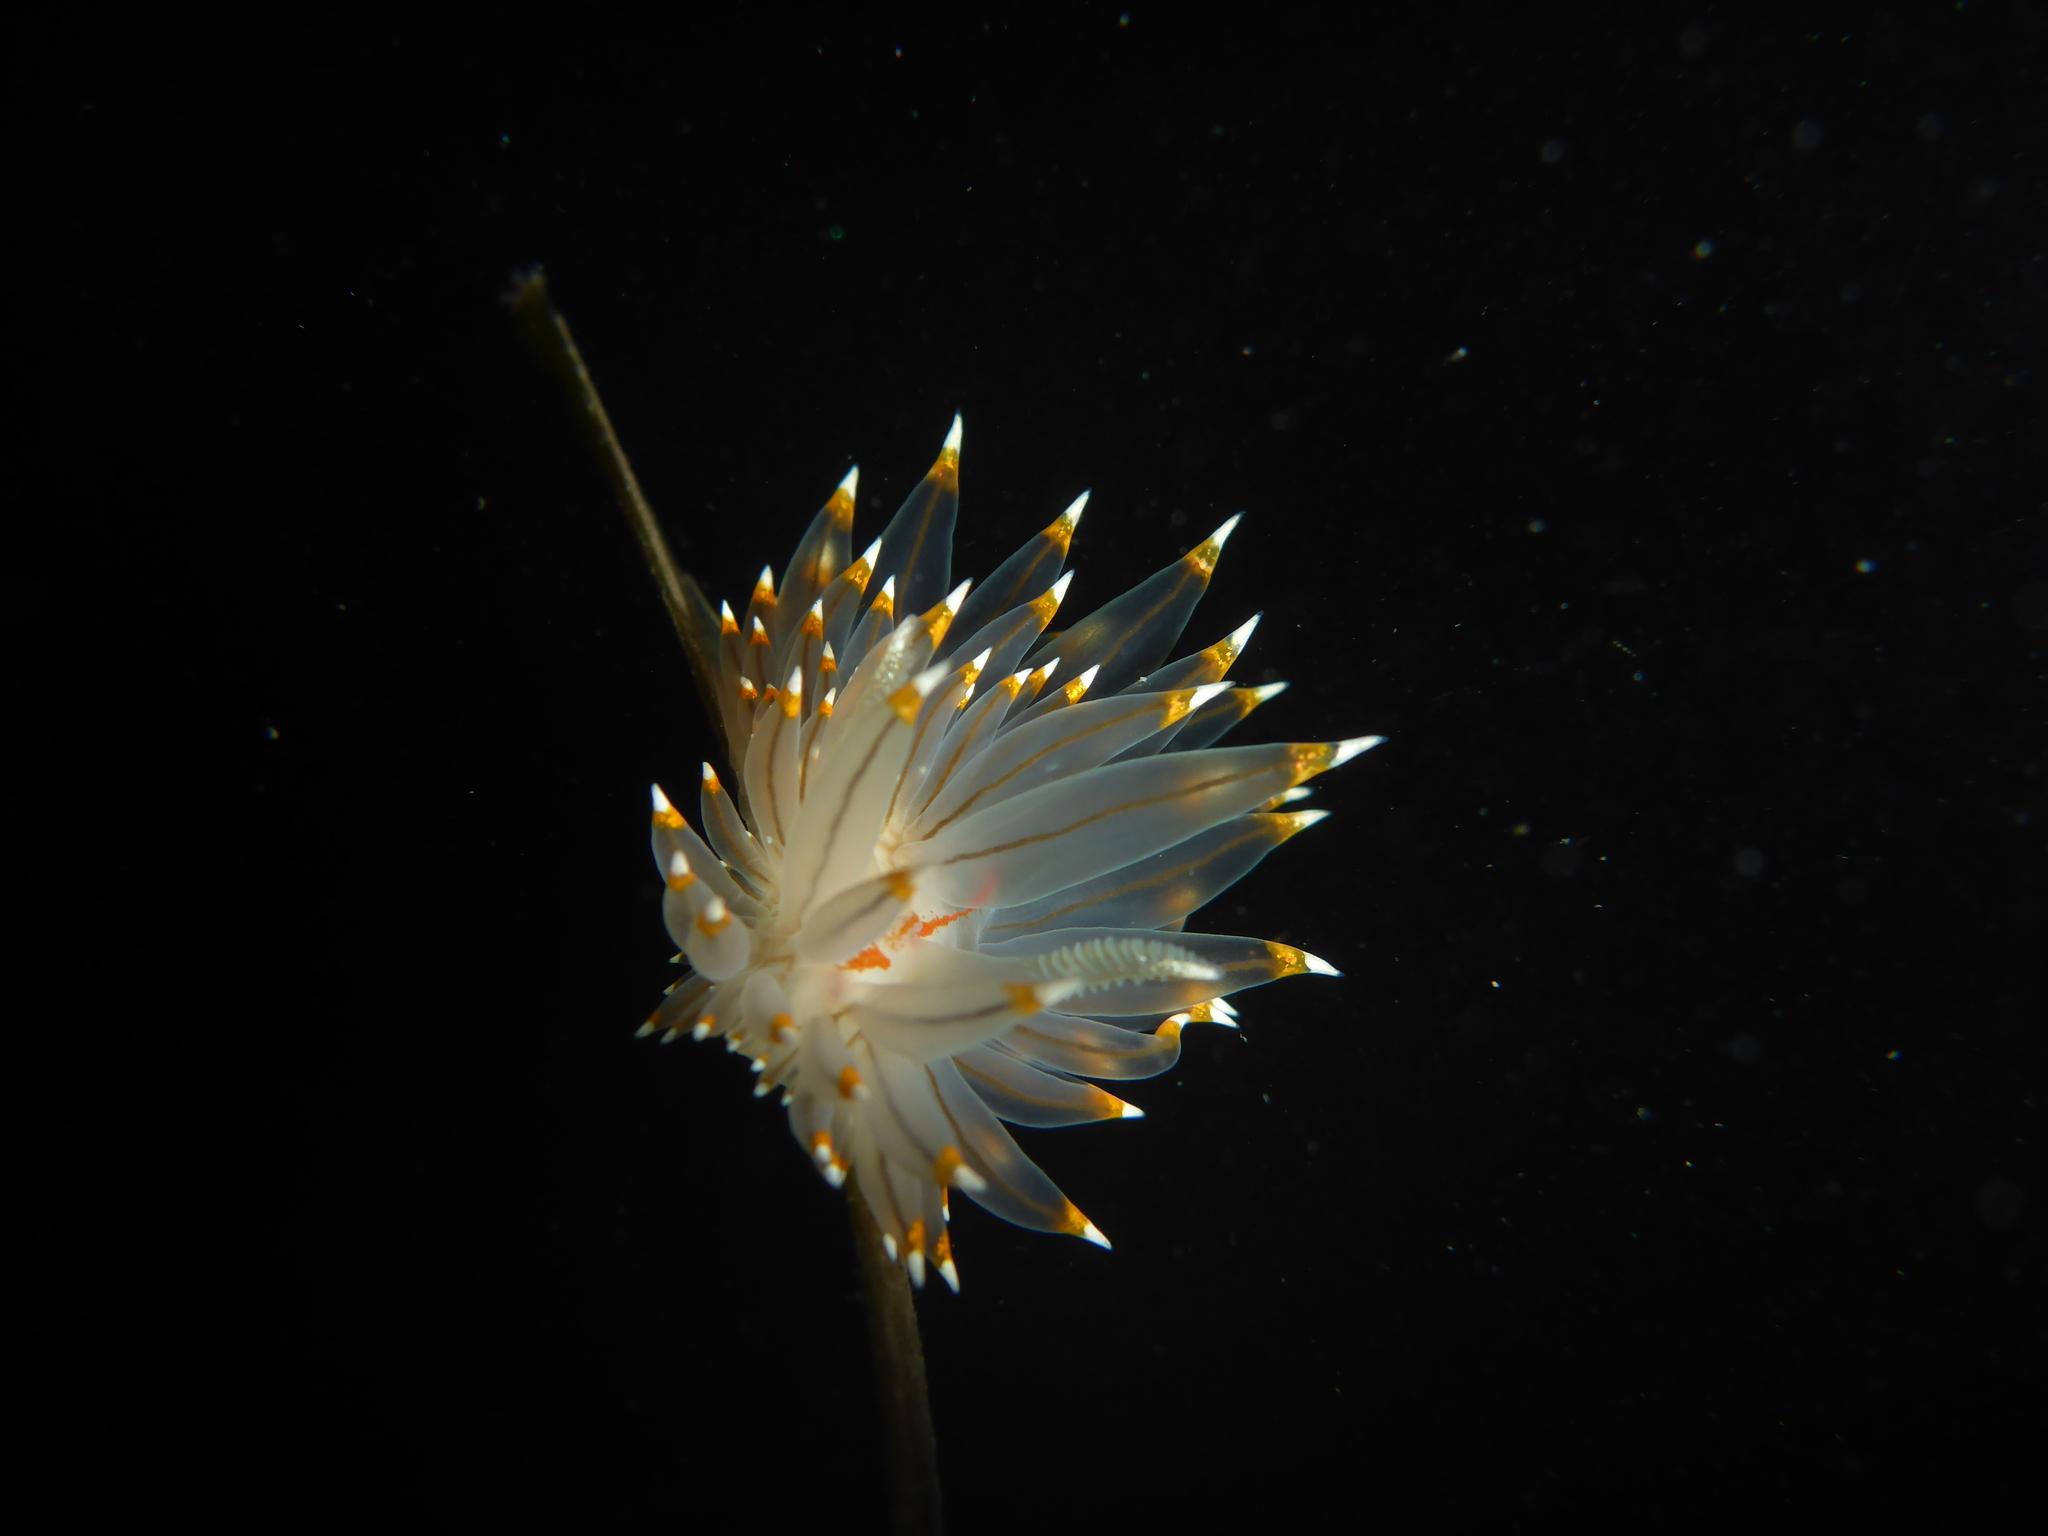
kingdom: Animalia
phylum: Mollusca
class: Gastropoda
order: Nudibranchia
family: Janolidae
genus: Antiopella
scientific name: Antiopella fusca
